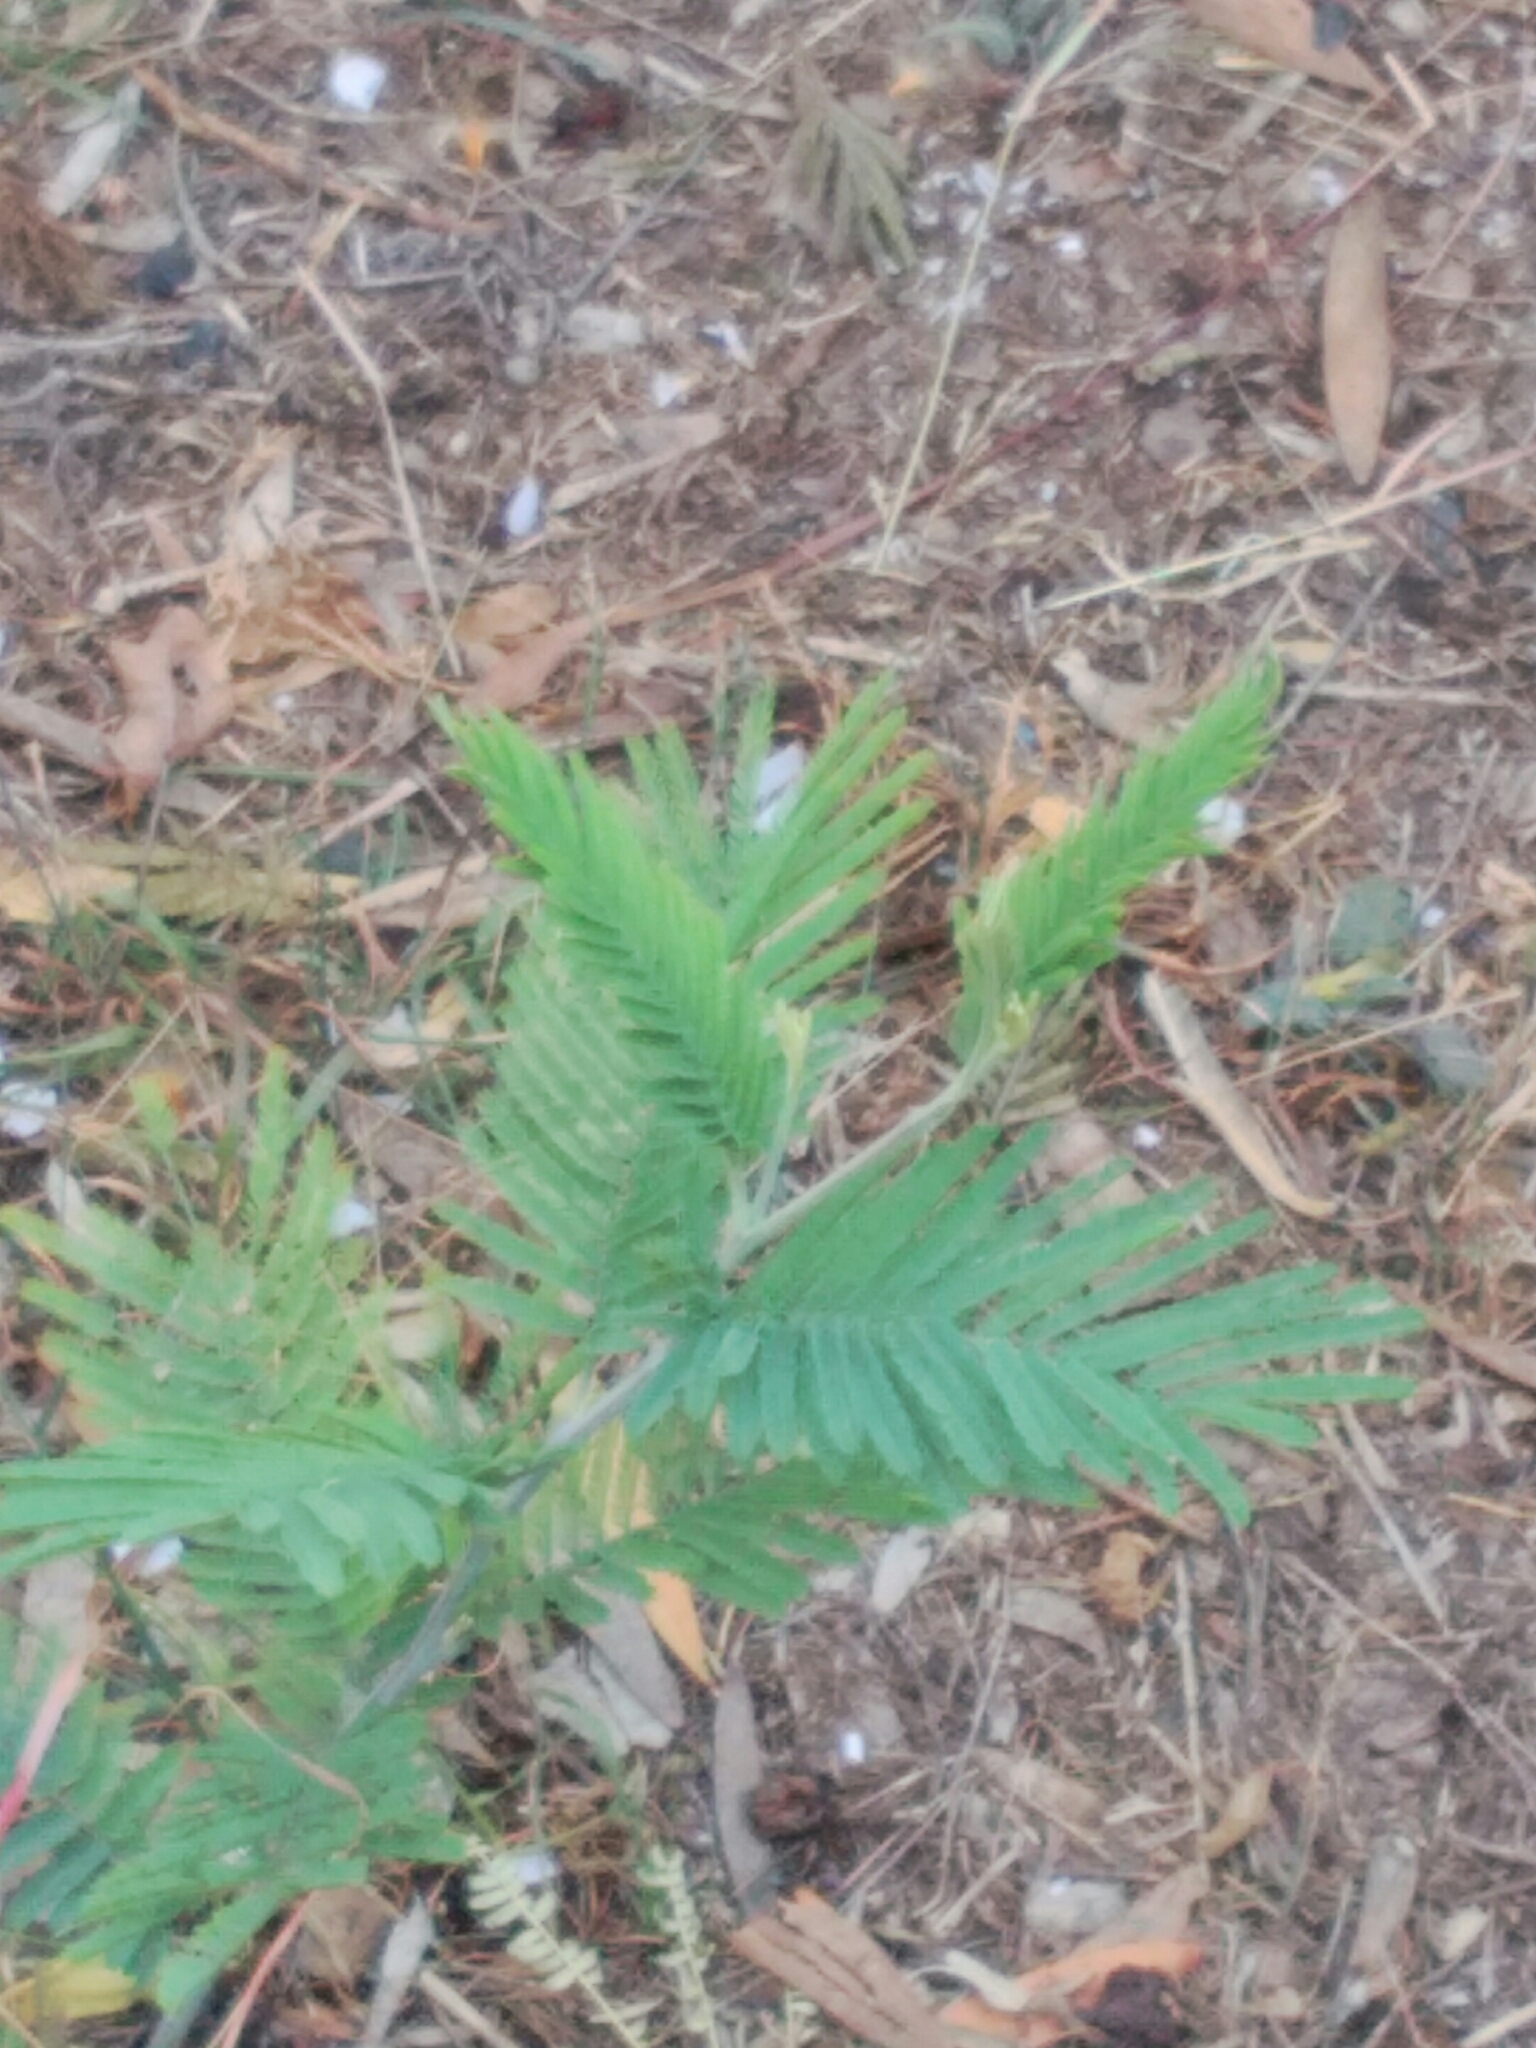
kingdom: Plantae
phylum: Tracheophyta
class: Magnoliopsida
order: Fabales
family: Fabaceae
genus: Acacia
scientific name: Acacia dealbata
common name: Silver wattle
